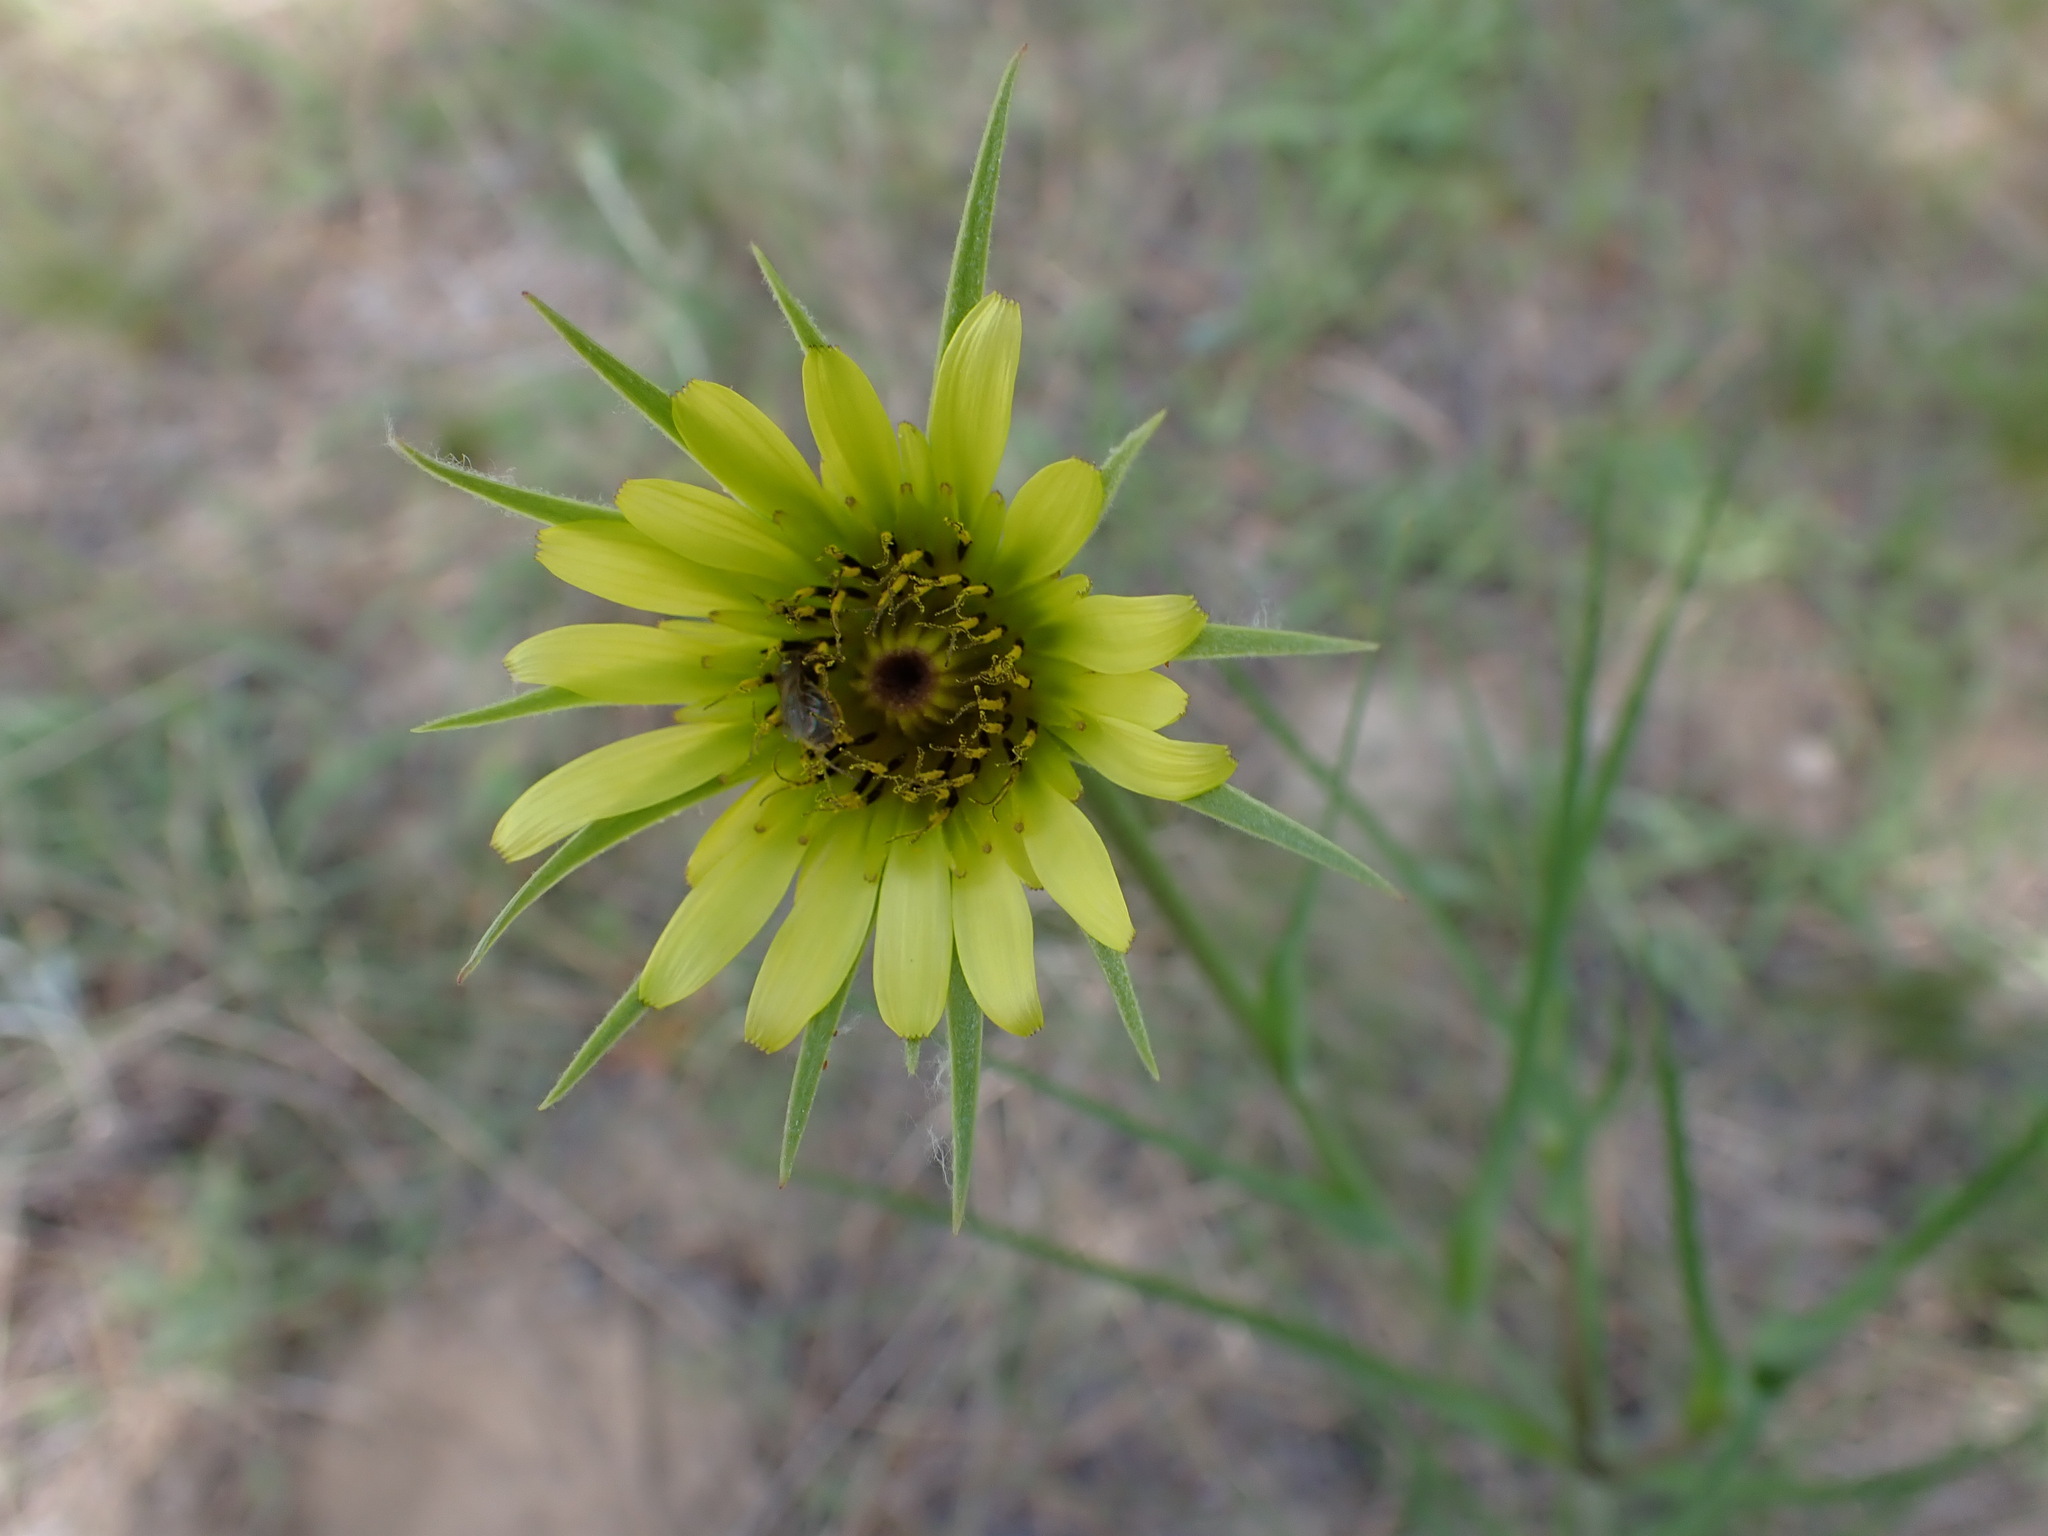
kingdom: Plantae
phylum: Tracheophyta
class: Magnoliopsida
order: Asterales
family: Asteraceae
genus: Tragopogon
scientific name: Tragopogon dubius
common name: Yellow salsify
